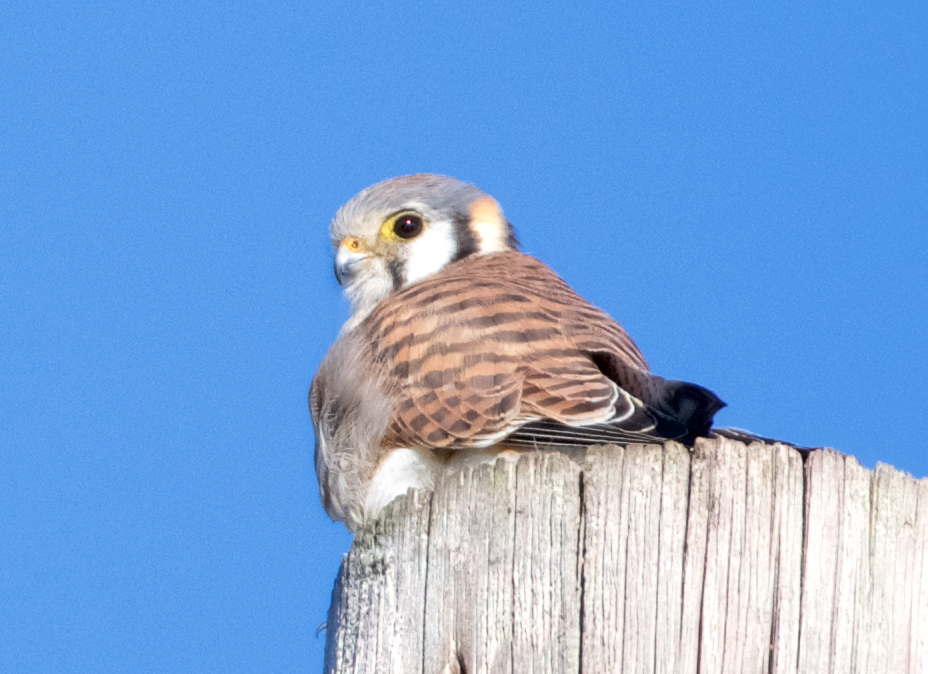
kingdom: Animalia
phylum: Chordata
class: Aves
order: Falconiformes
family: Falconidae
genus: Falco
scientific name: Falco sparverius
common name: American kestrel
